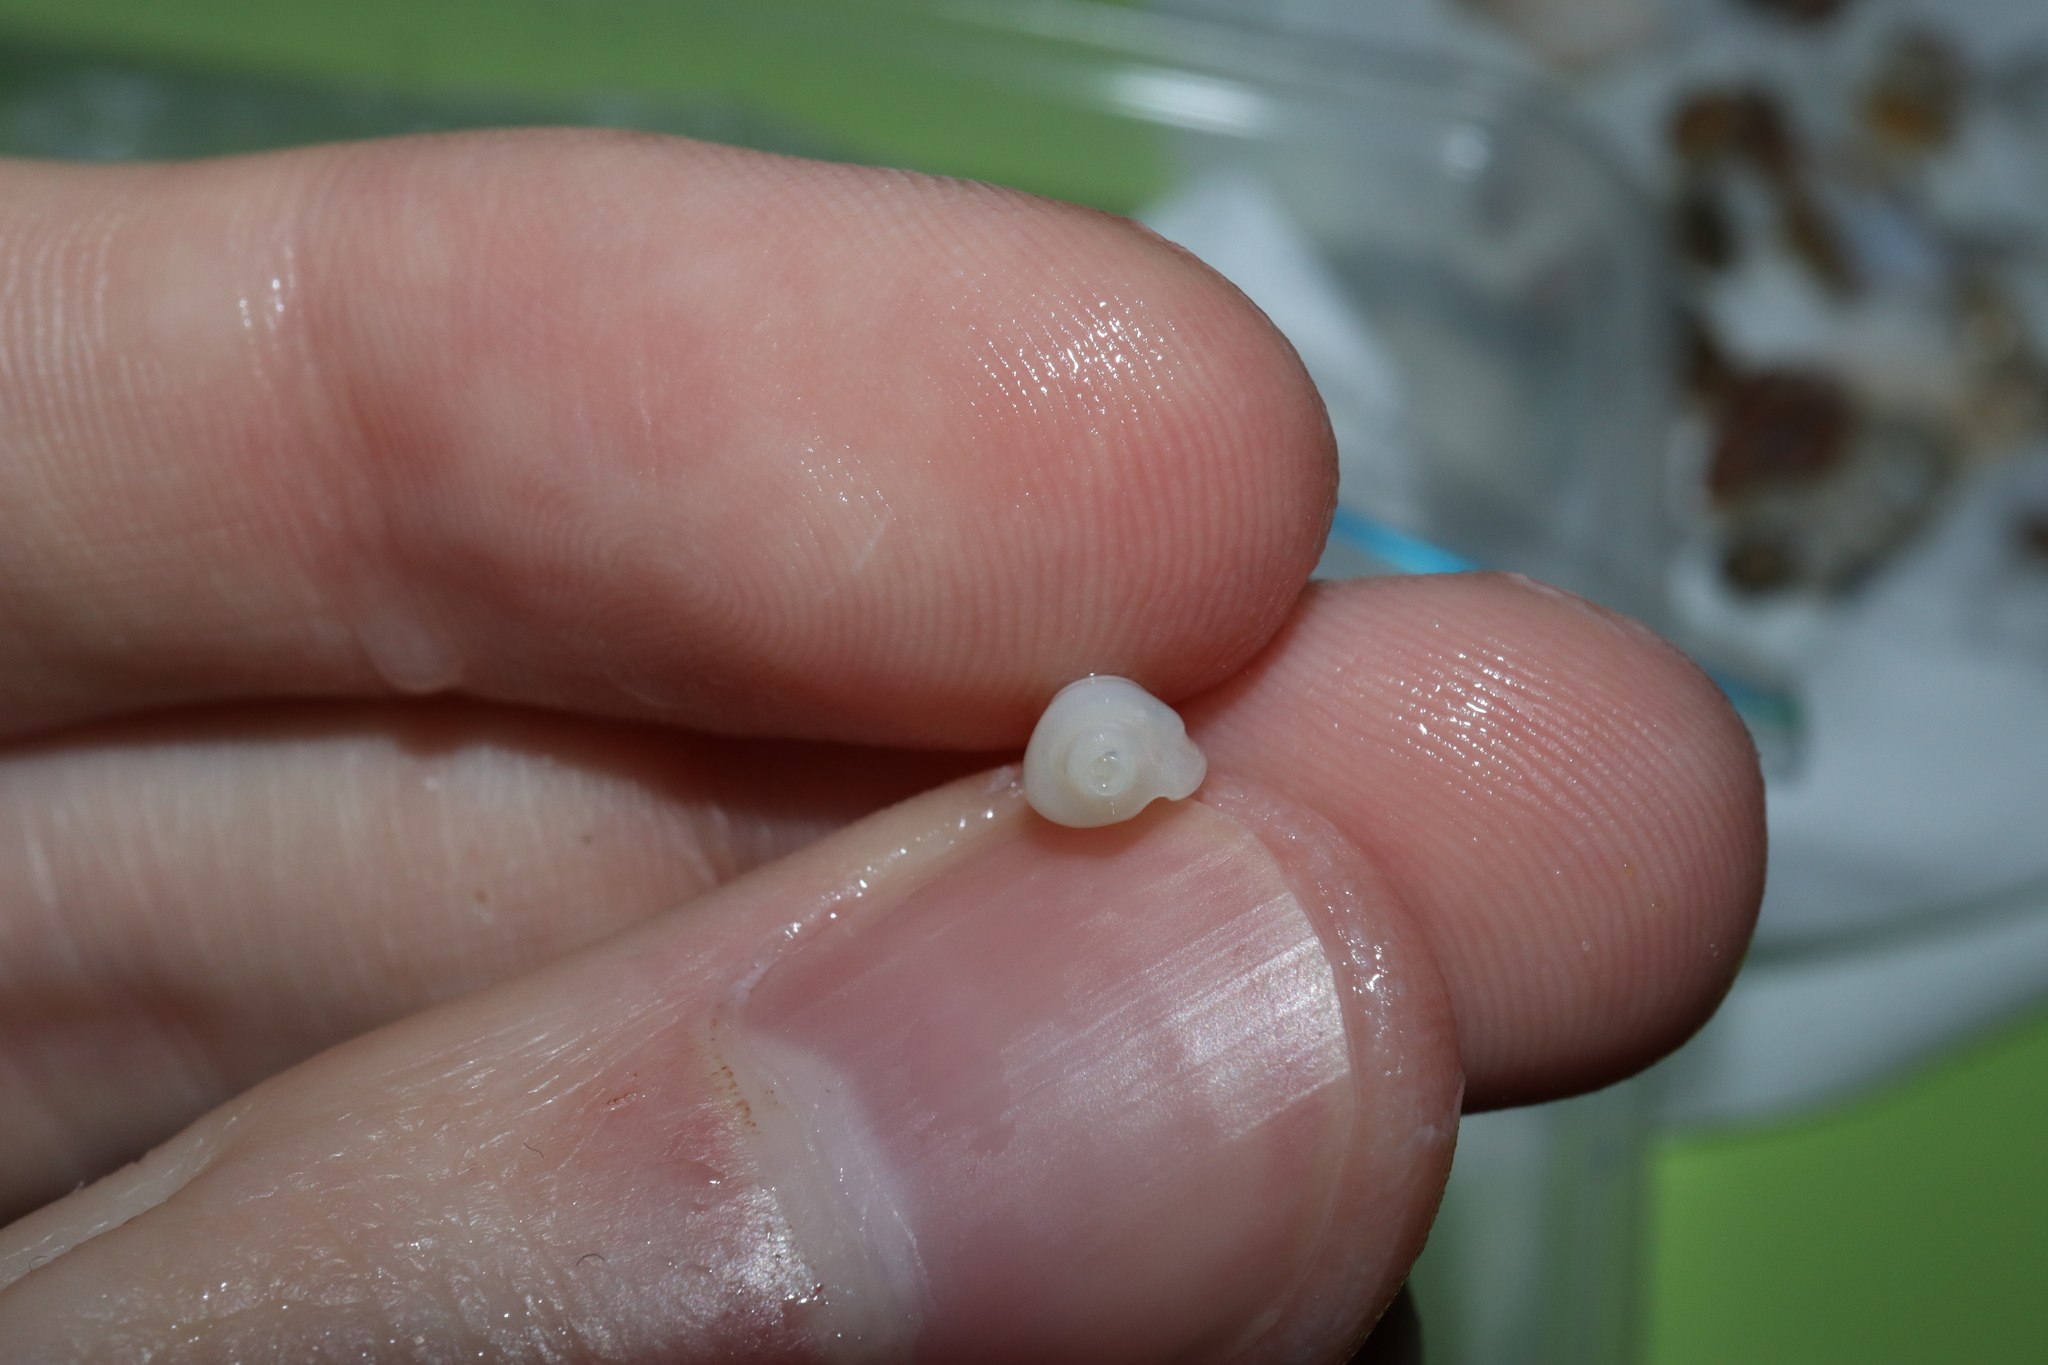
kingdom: Animalia
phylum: Mollusca
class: Gastropoda
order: Neogastropoda
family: Marginellidae
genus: Austroginella
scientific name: Austroginella johnstoni
